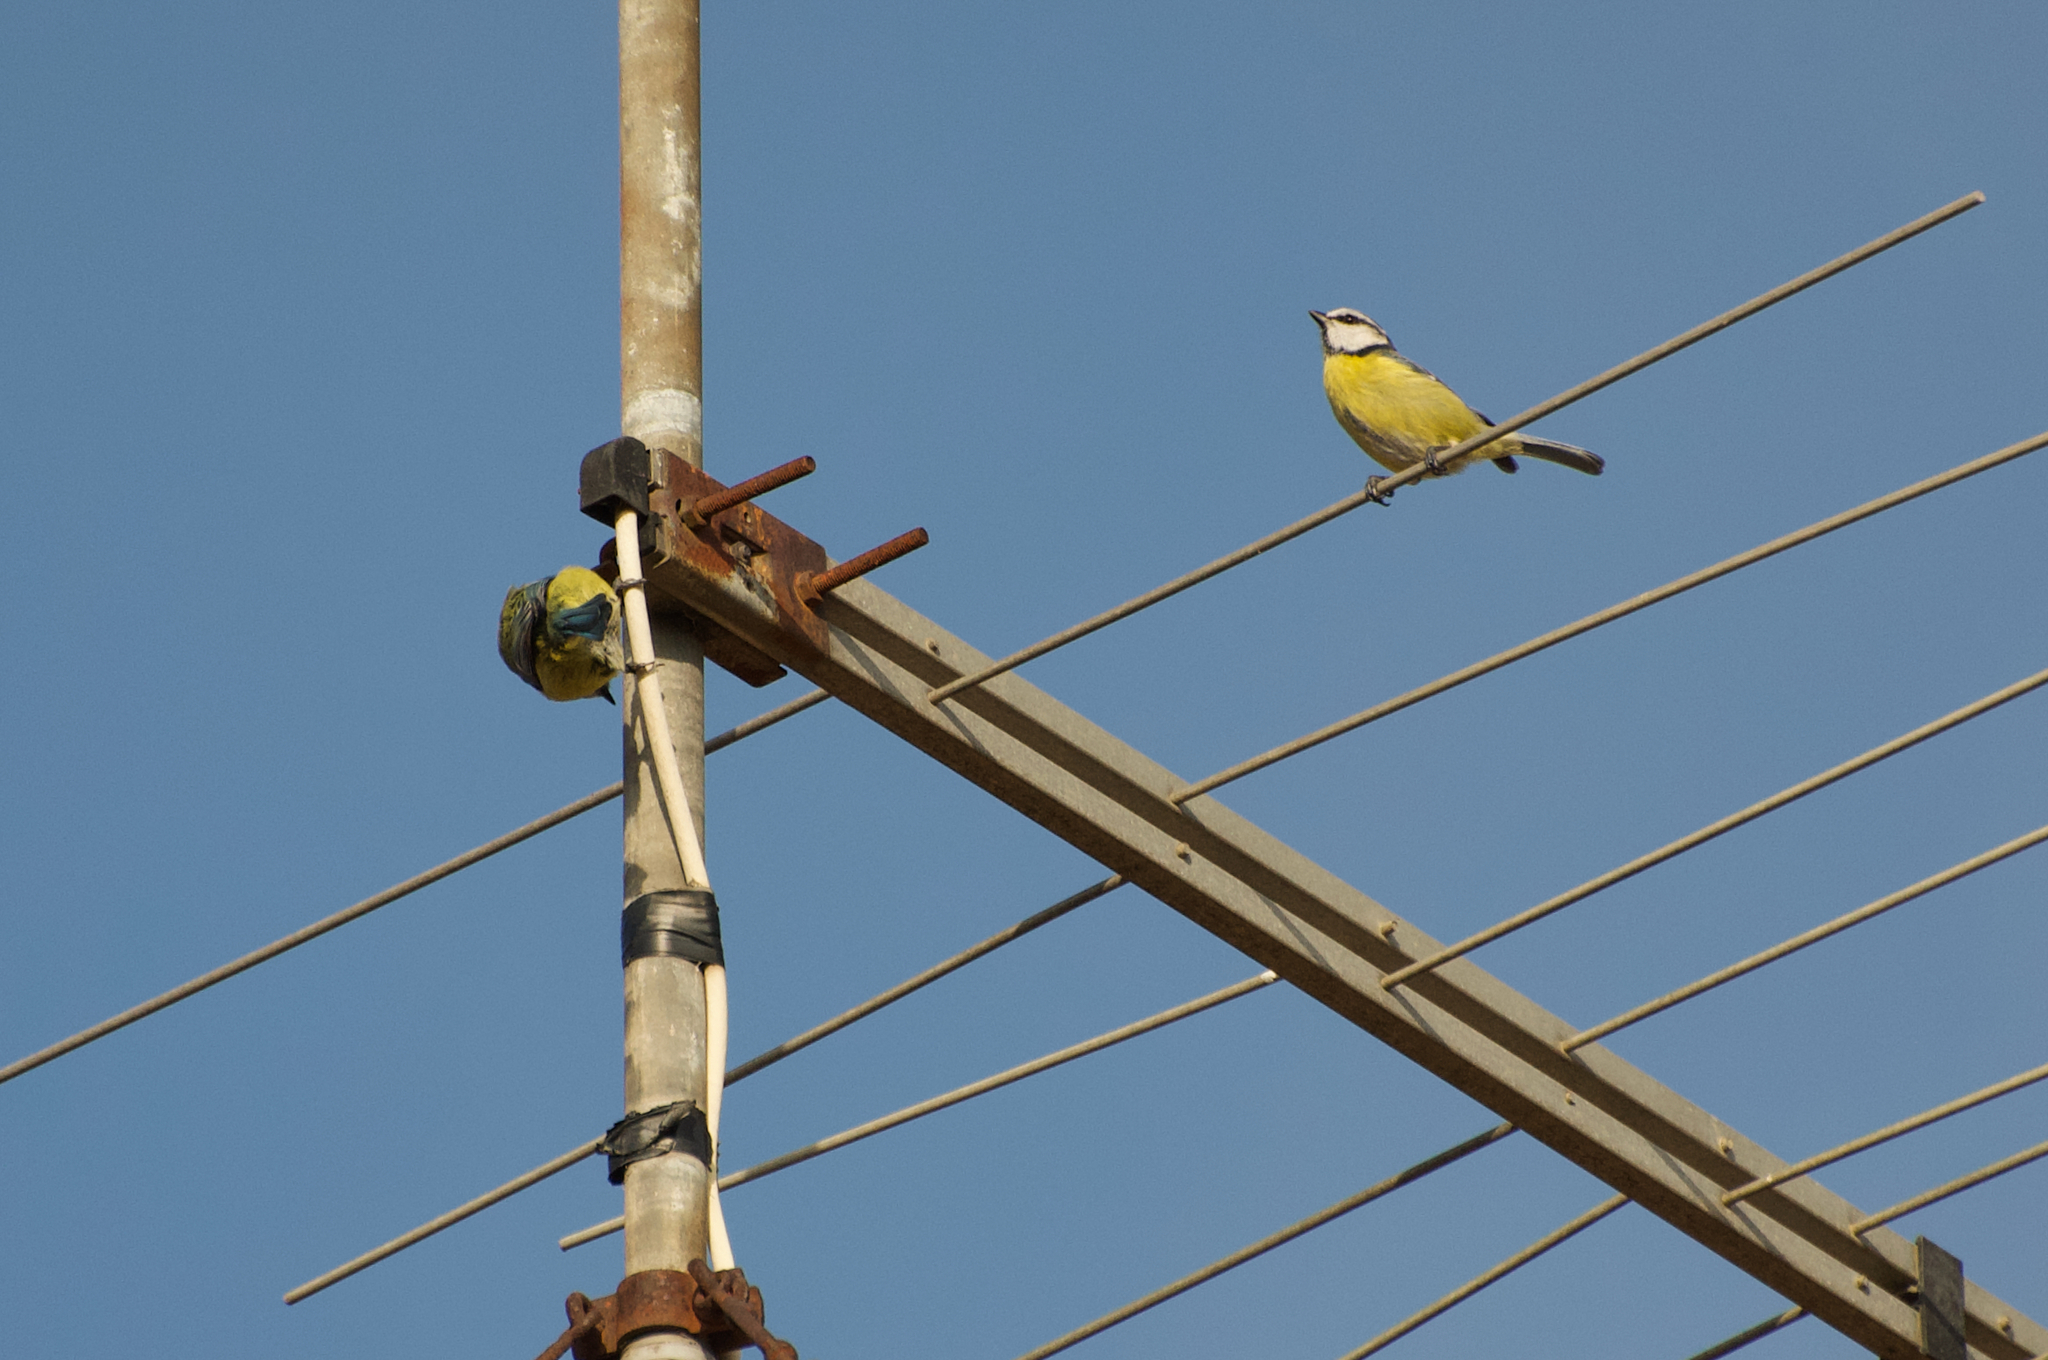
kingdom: Animalia
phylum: Chordata
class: Aves
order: Passeriformes
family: Paridae
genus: Cyanistes
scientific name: Cyanistes caeruleus
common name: Eurasian blue tit
